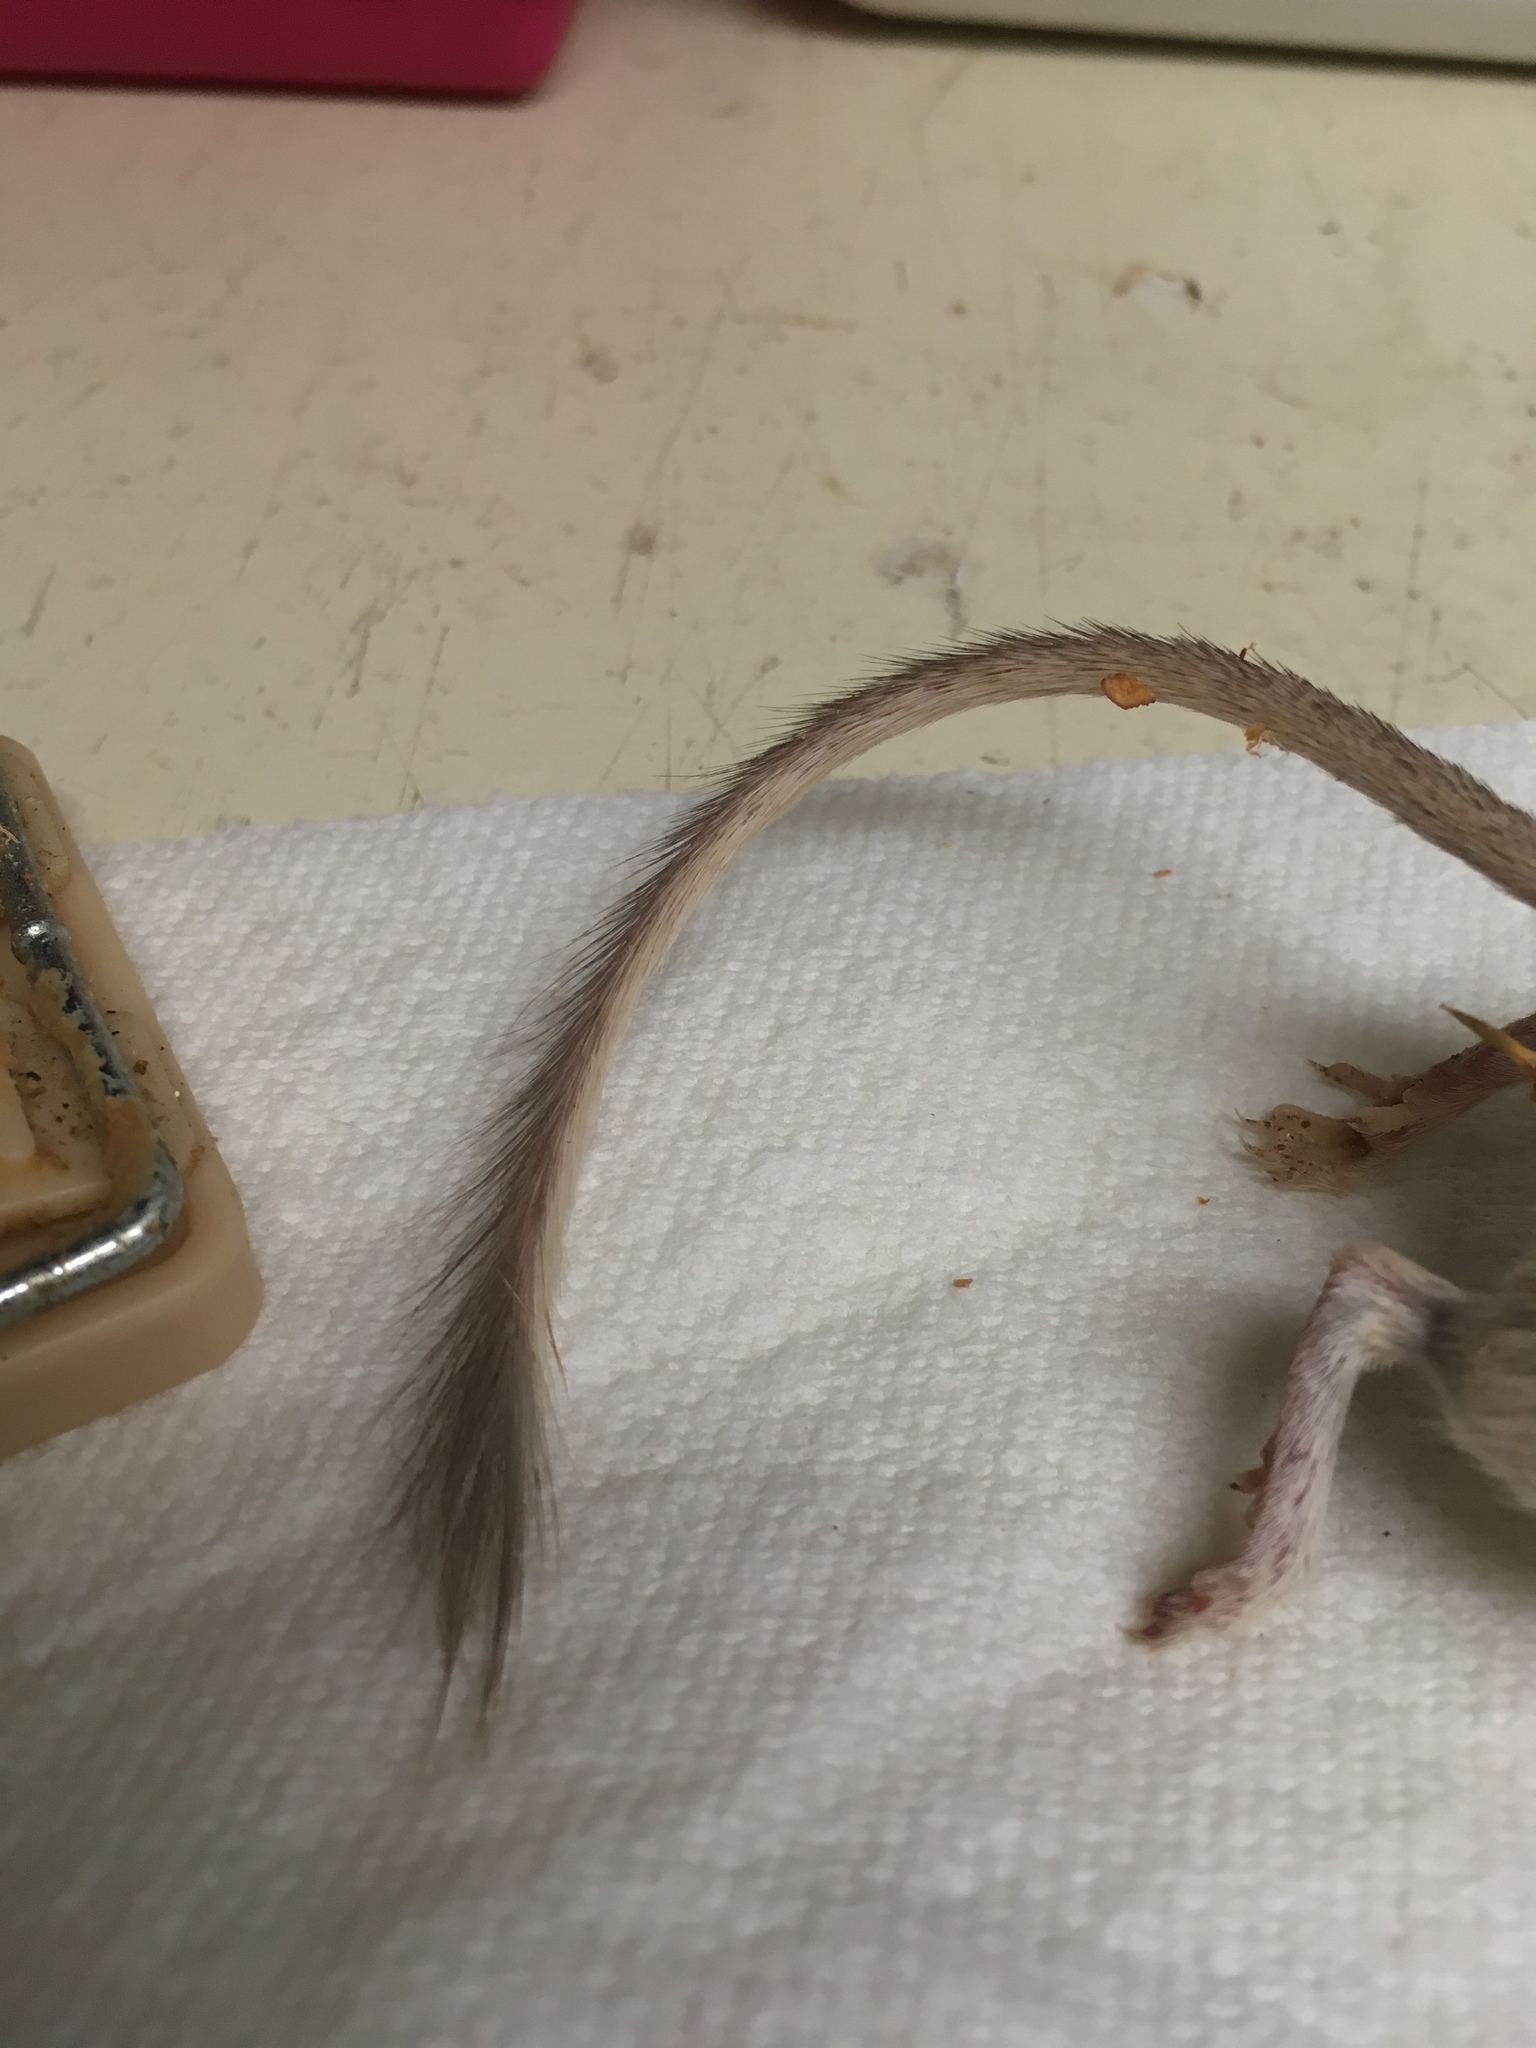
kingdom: Animalia
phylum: Chordata
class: Mammalia
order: Rodentia
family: Heteromyidae
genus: Chaetodipus
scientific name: Chaetodipus penicillatus
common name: Desert pocket mouse
